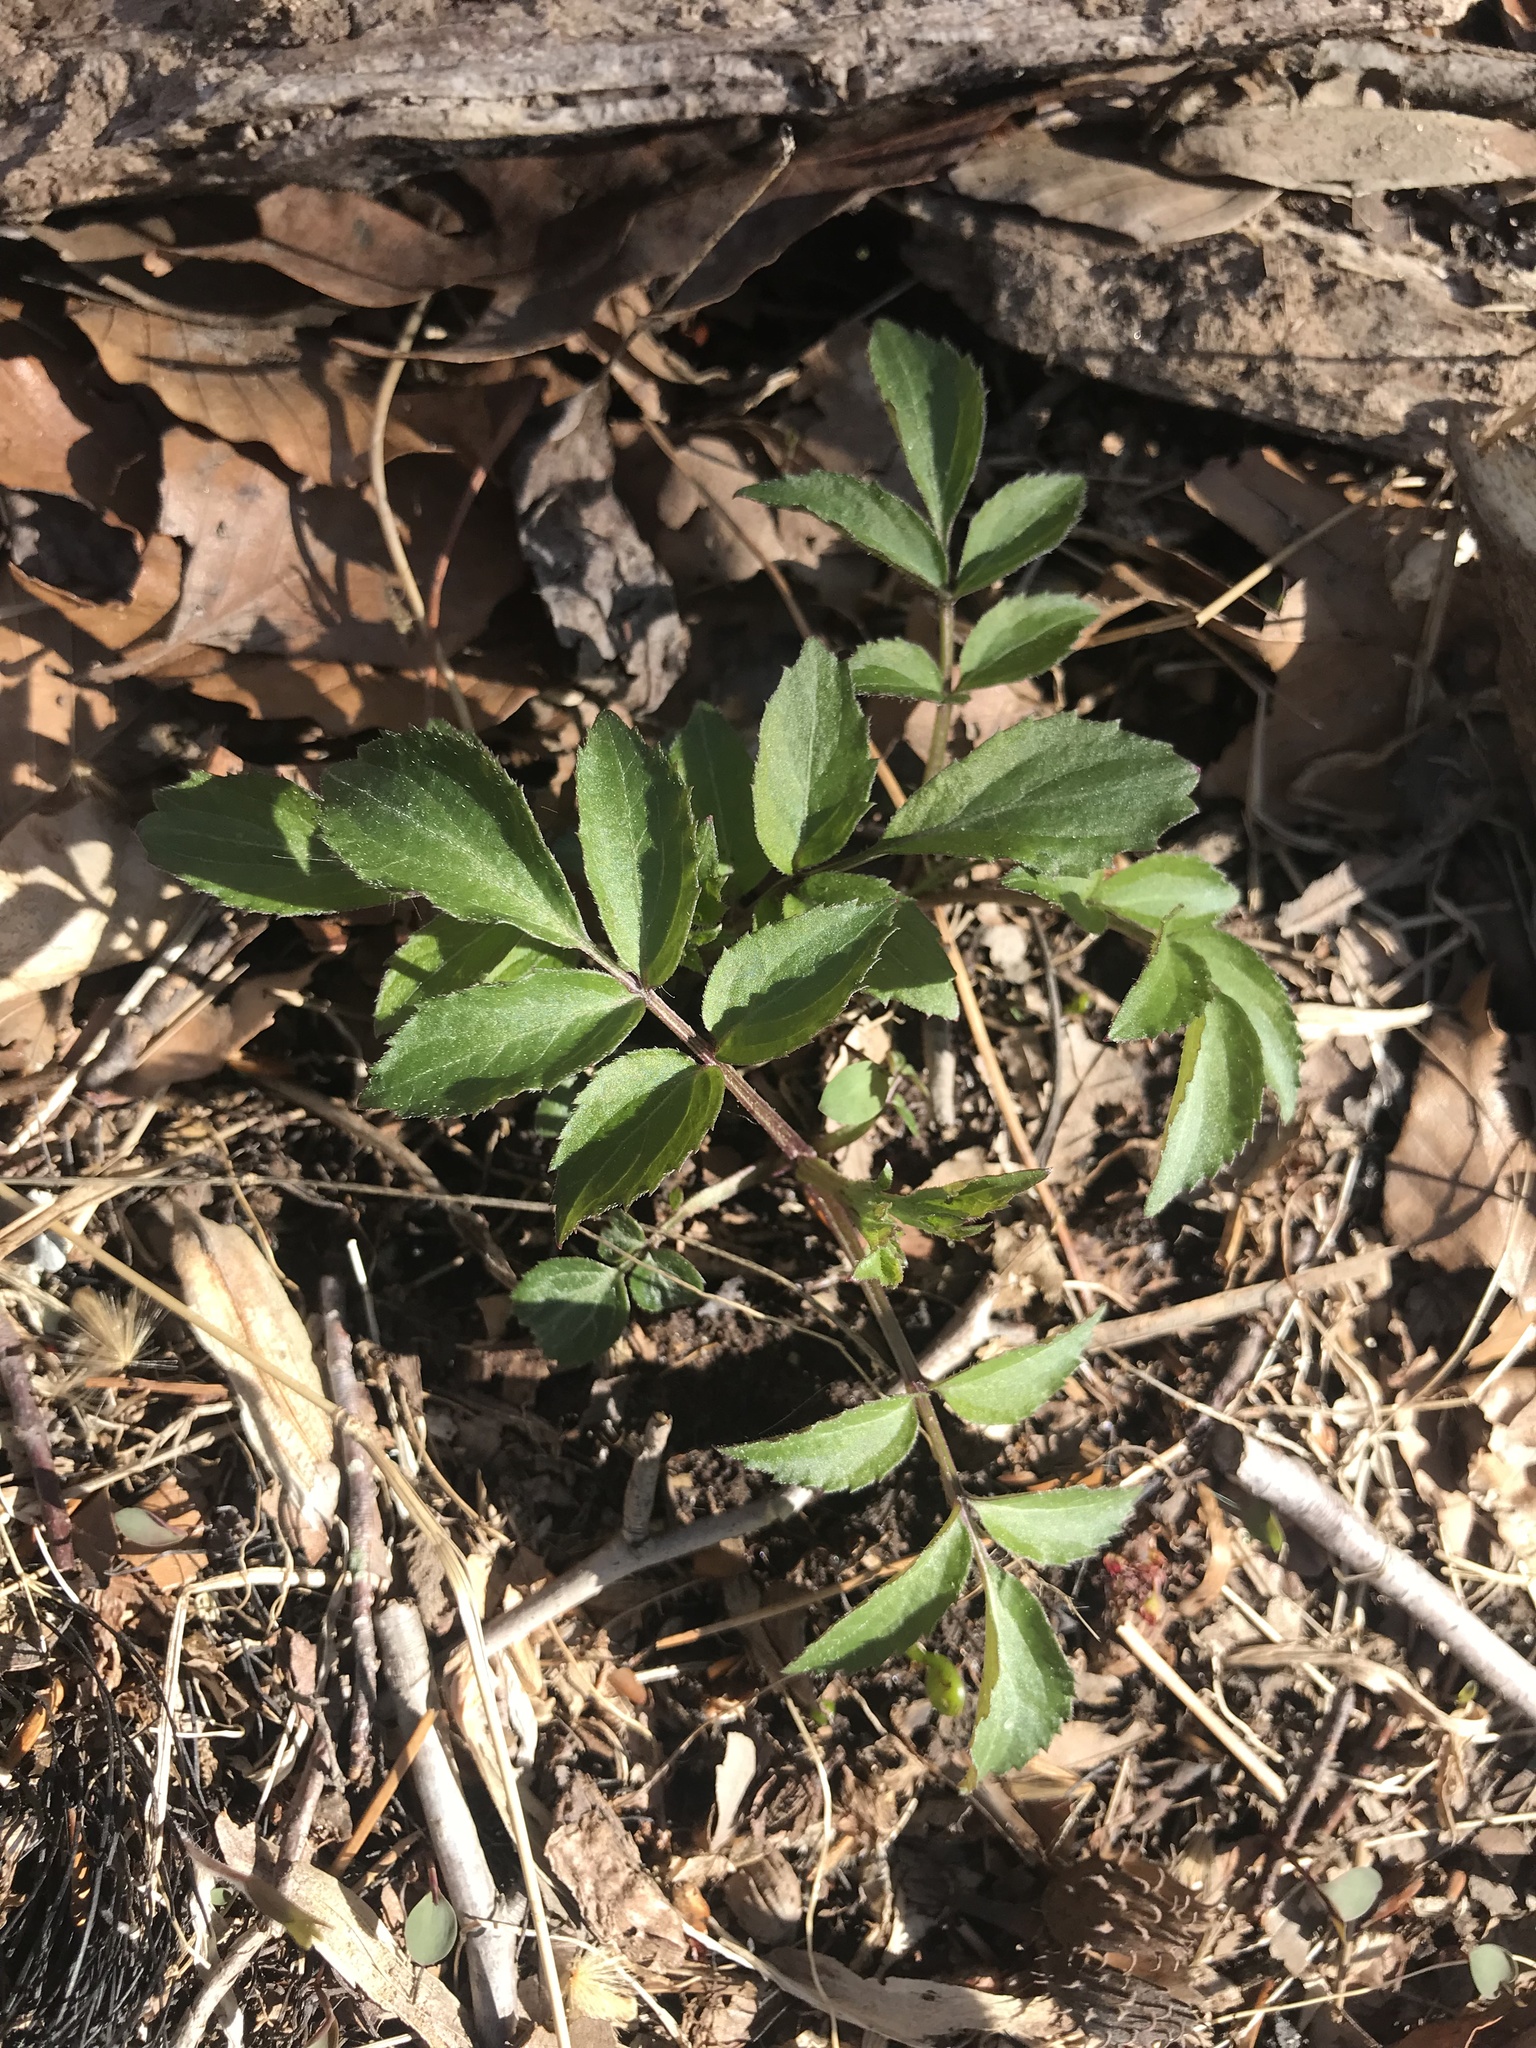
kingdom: Plantae
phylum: Tracheophyta
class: Magnoliopsida
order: Dipsacales
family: Viburnaceae
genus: Sambucus
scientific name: Sambucus canadensis
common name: American elder
